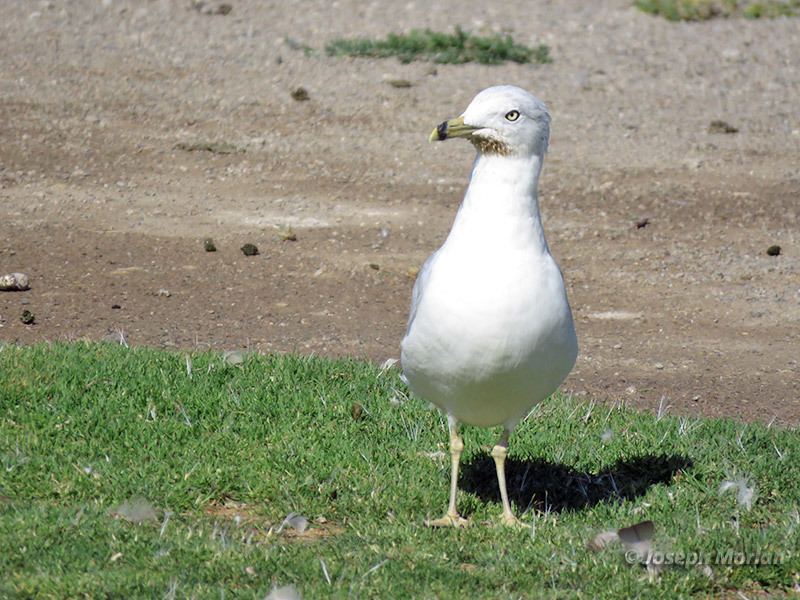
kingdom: Animalia
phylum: Chordata
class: Aves
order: Charadriiformes
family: Laridae
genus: Larus
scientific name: Larus delawarensis
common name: Ring-billed gull
